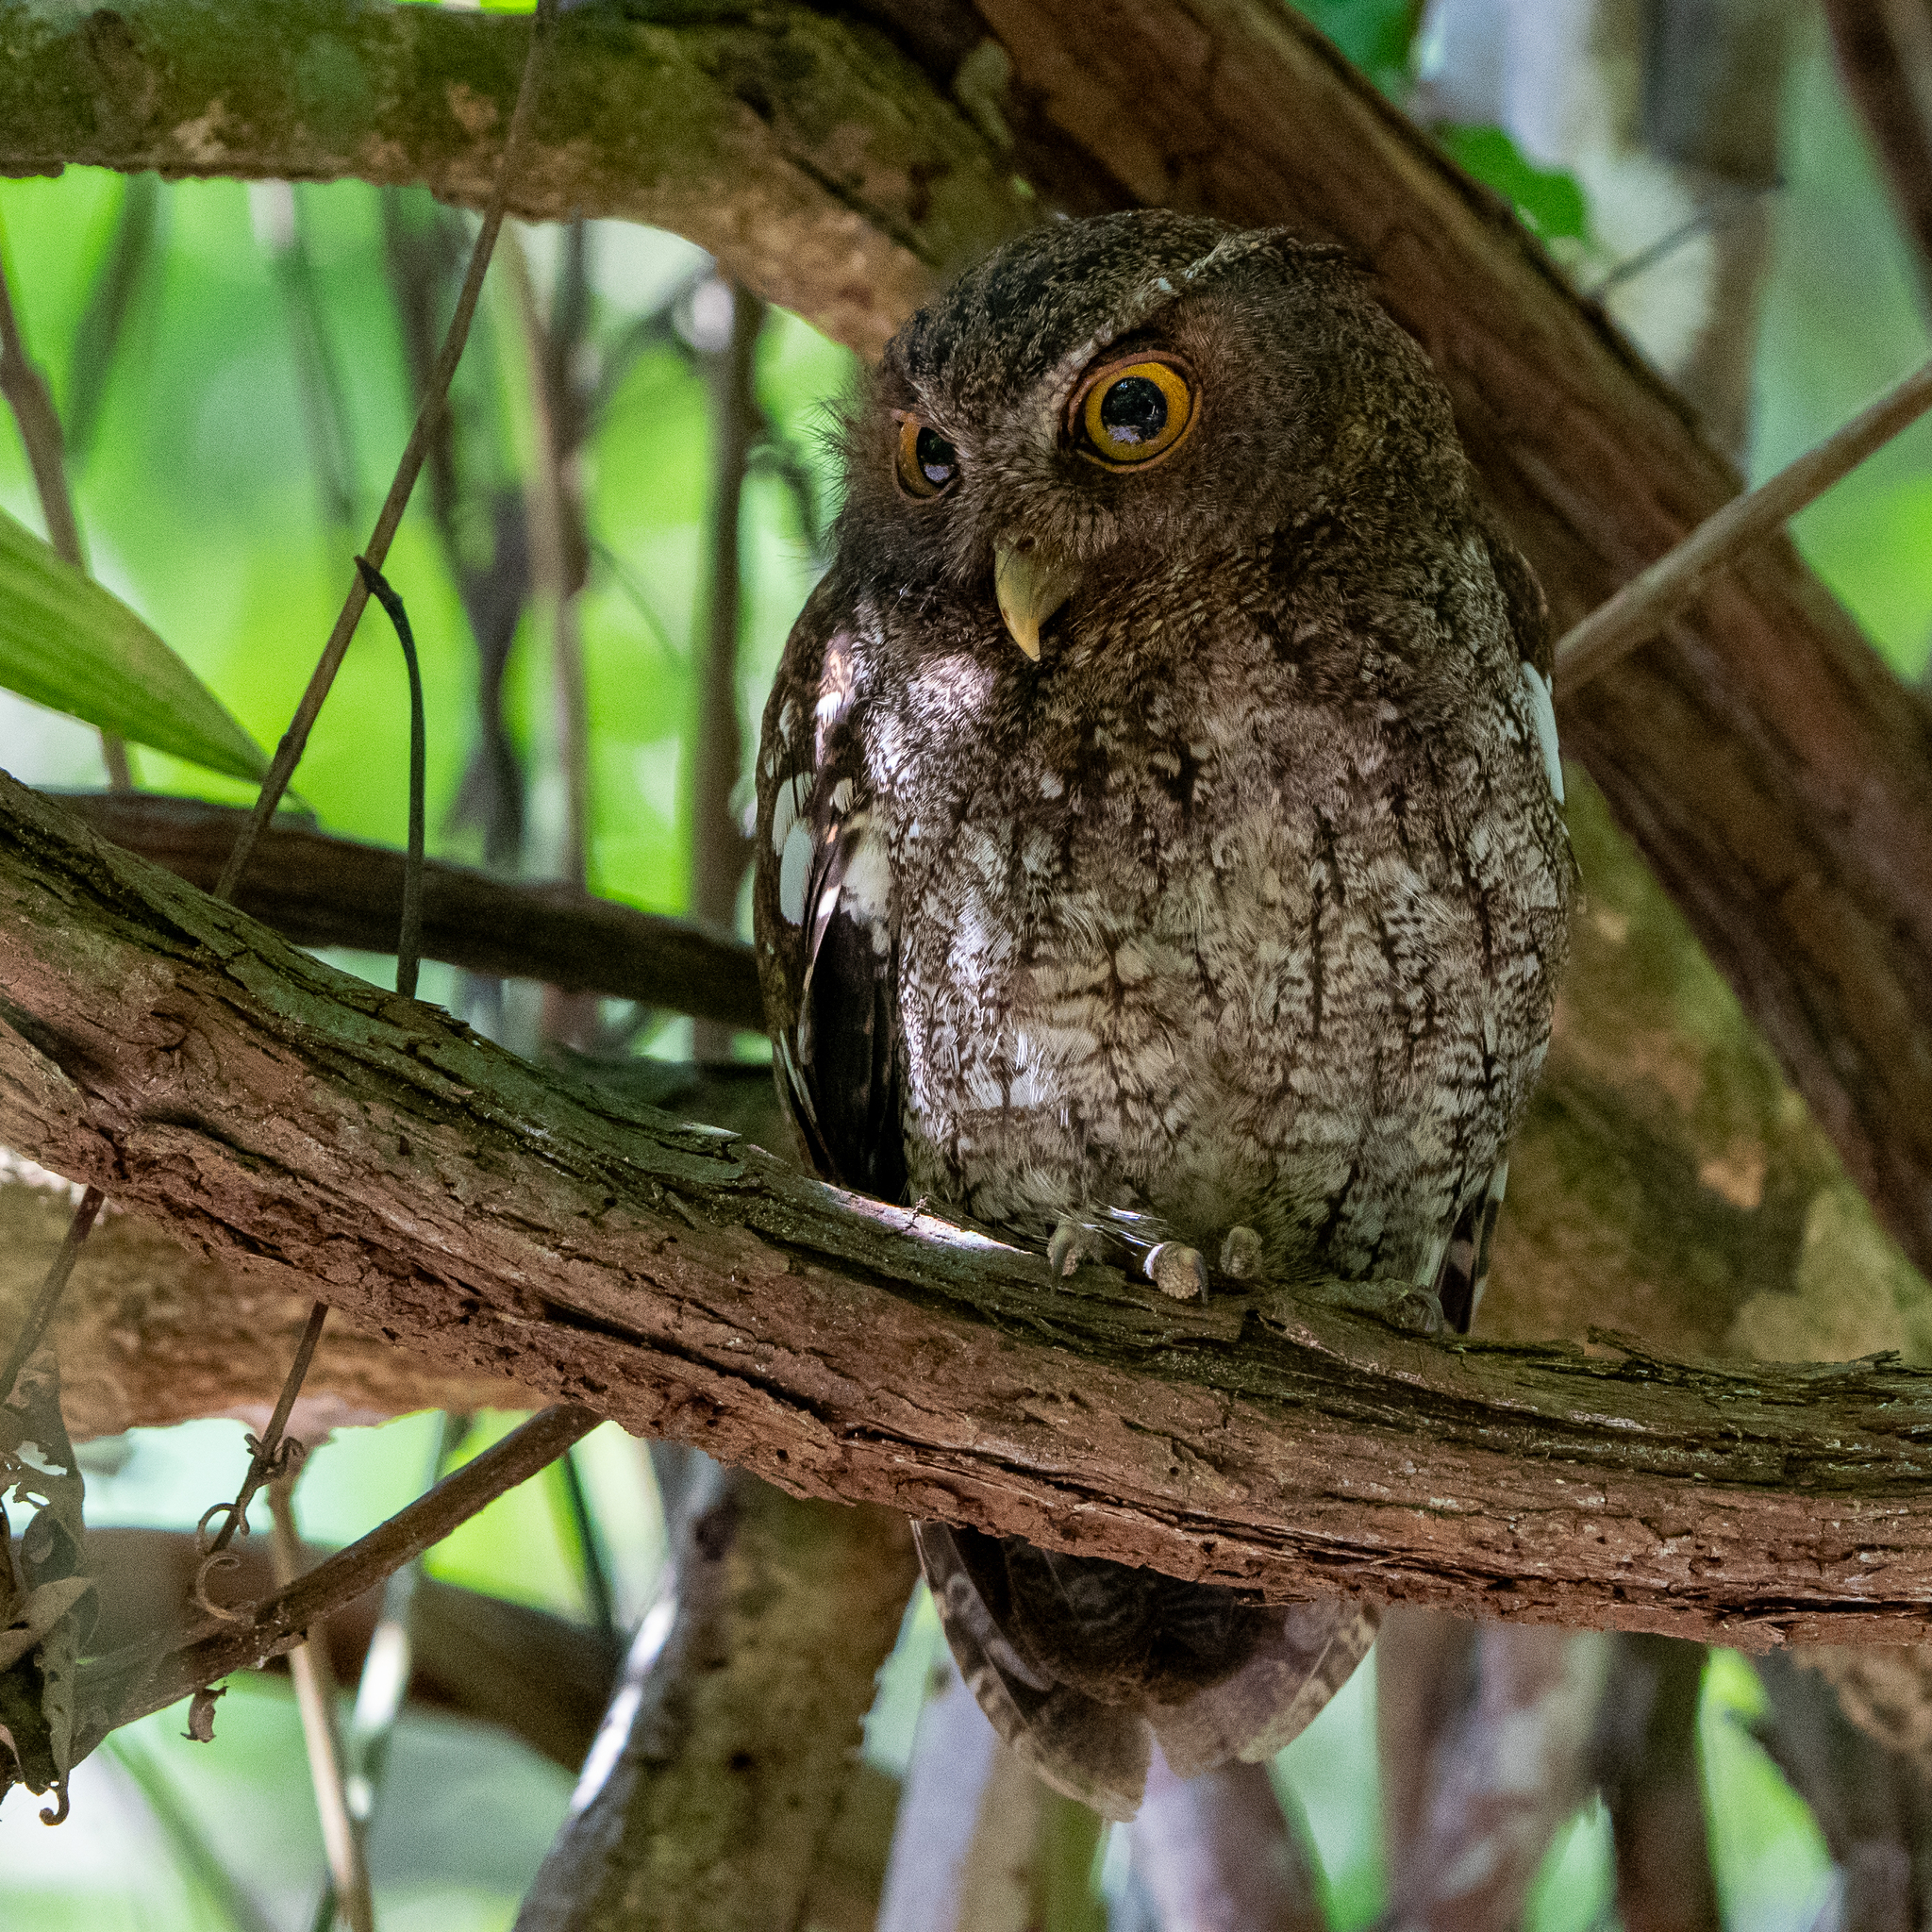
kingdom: Animalia
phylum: Chordata
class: Aves
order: Strigiformes
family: Strigidae
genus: Megascops
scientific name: Megascops centralis
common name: Choco screech owl
